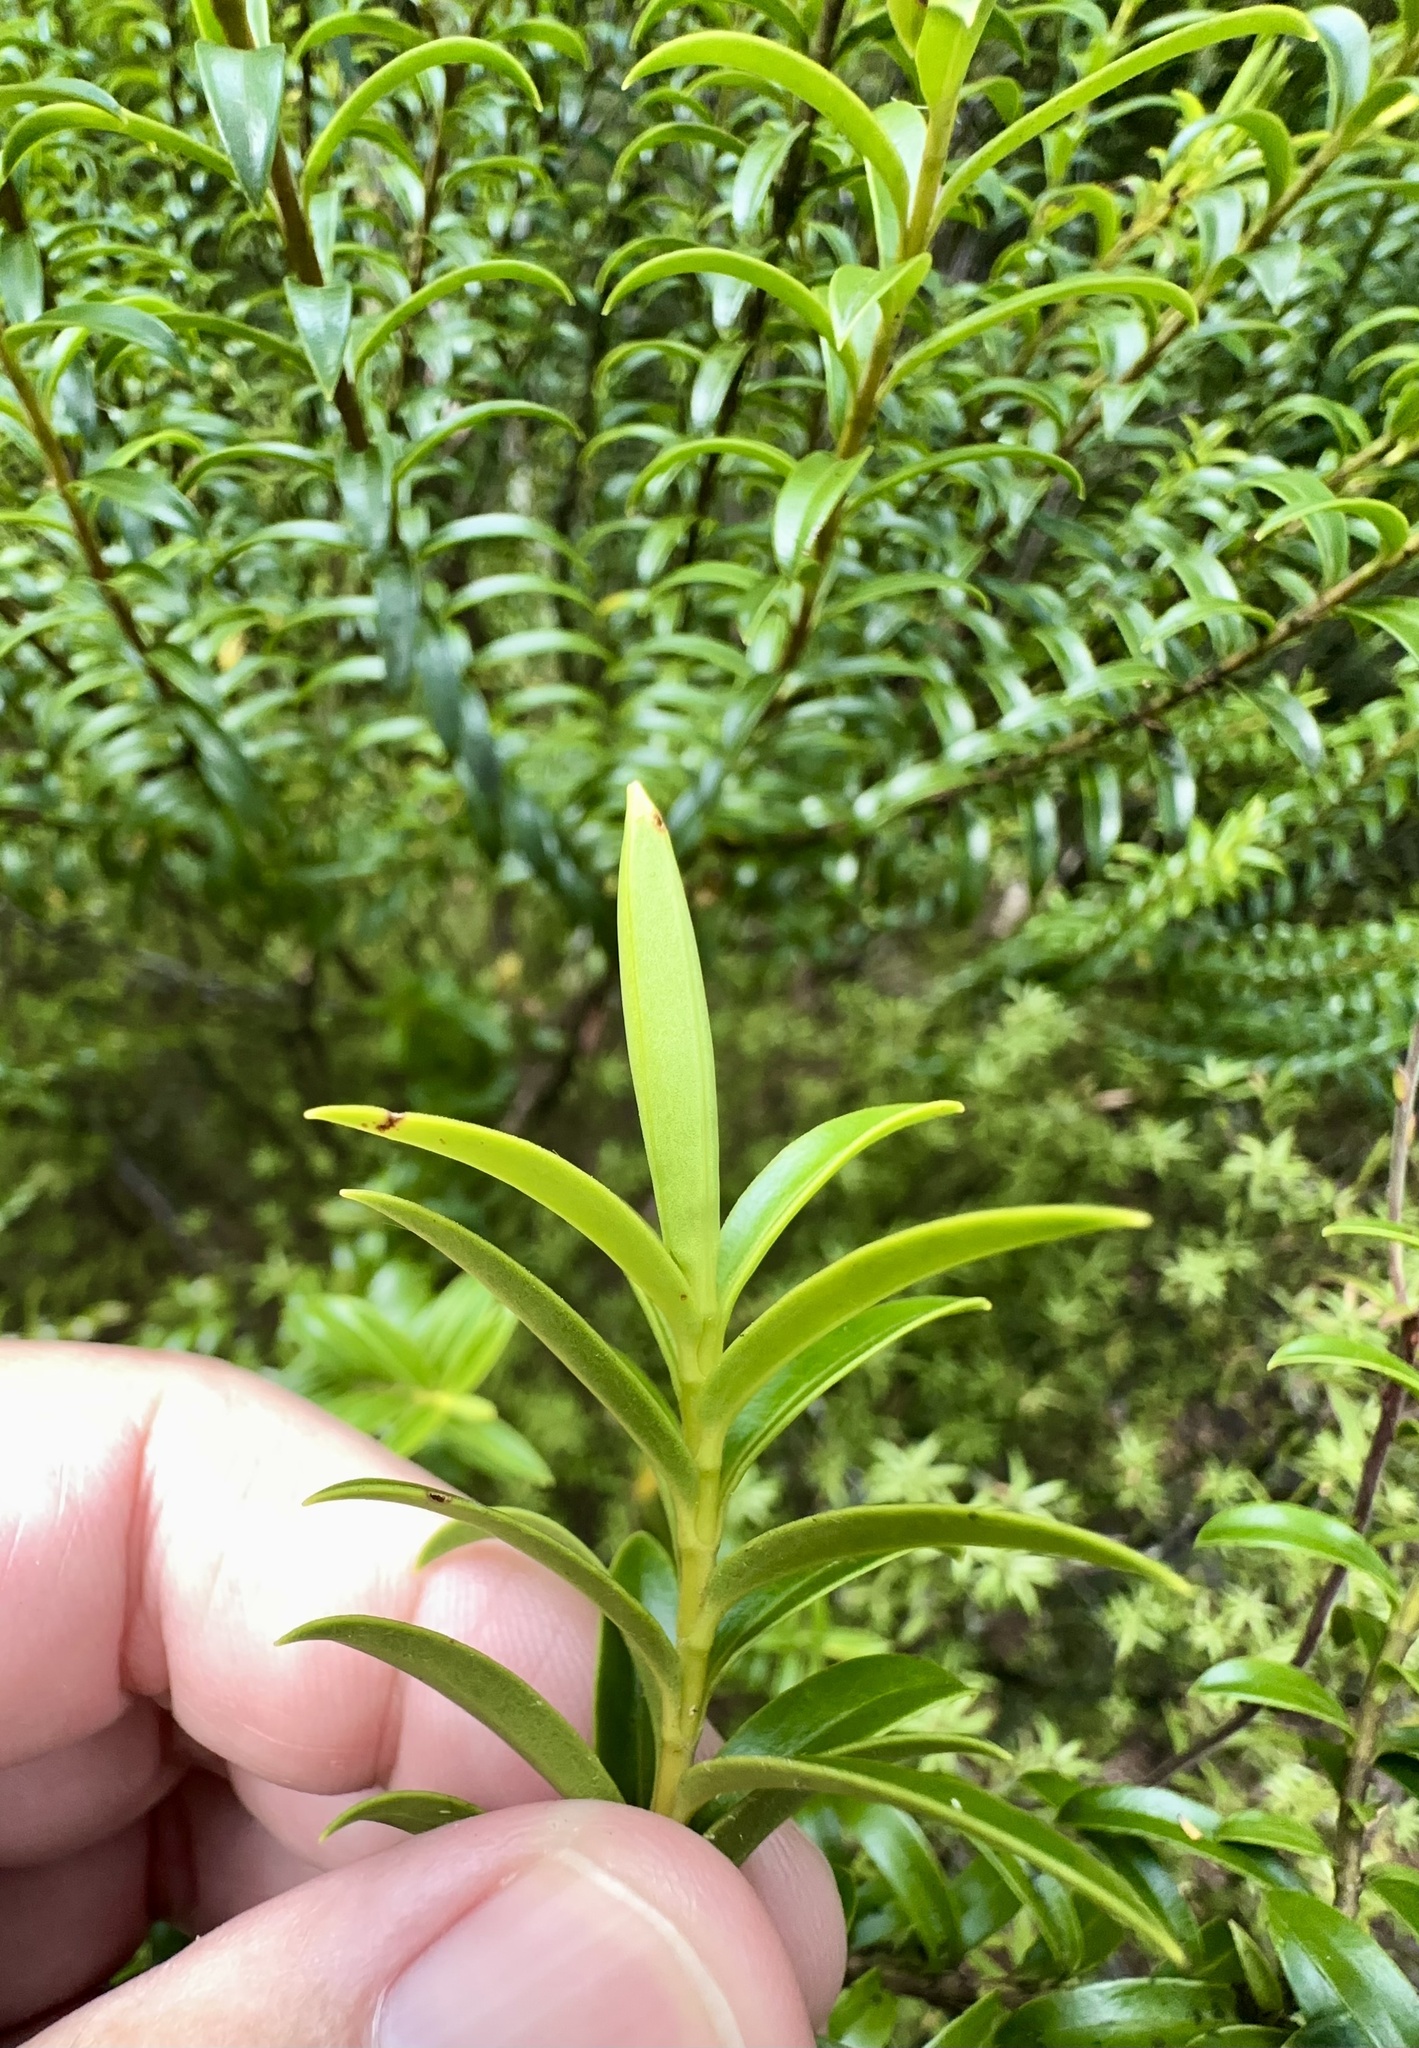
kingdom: Plantae
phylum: Tracheophyta
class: Magnoliopsida
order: Lamiales
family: Plantaginaceae
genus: Veronica
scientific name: Veronica leiophylla
